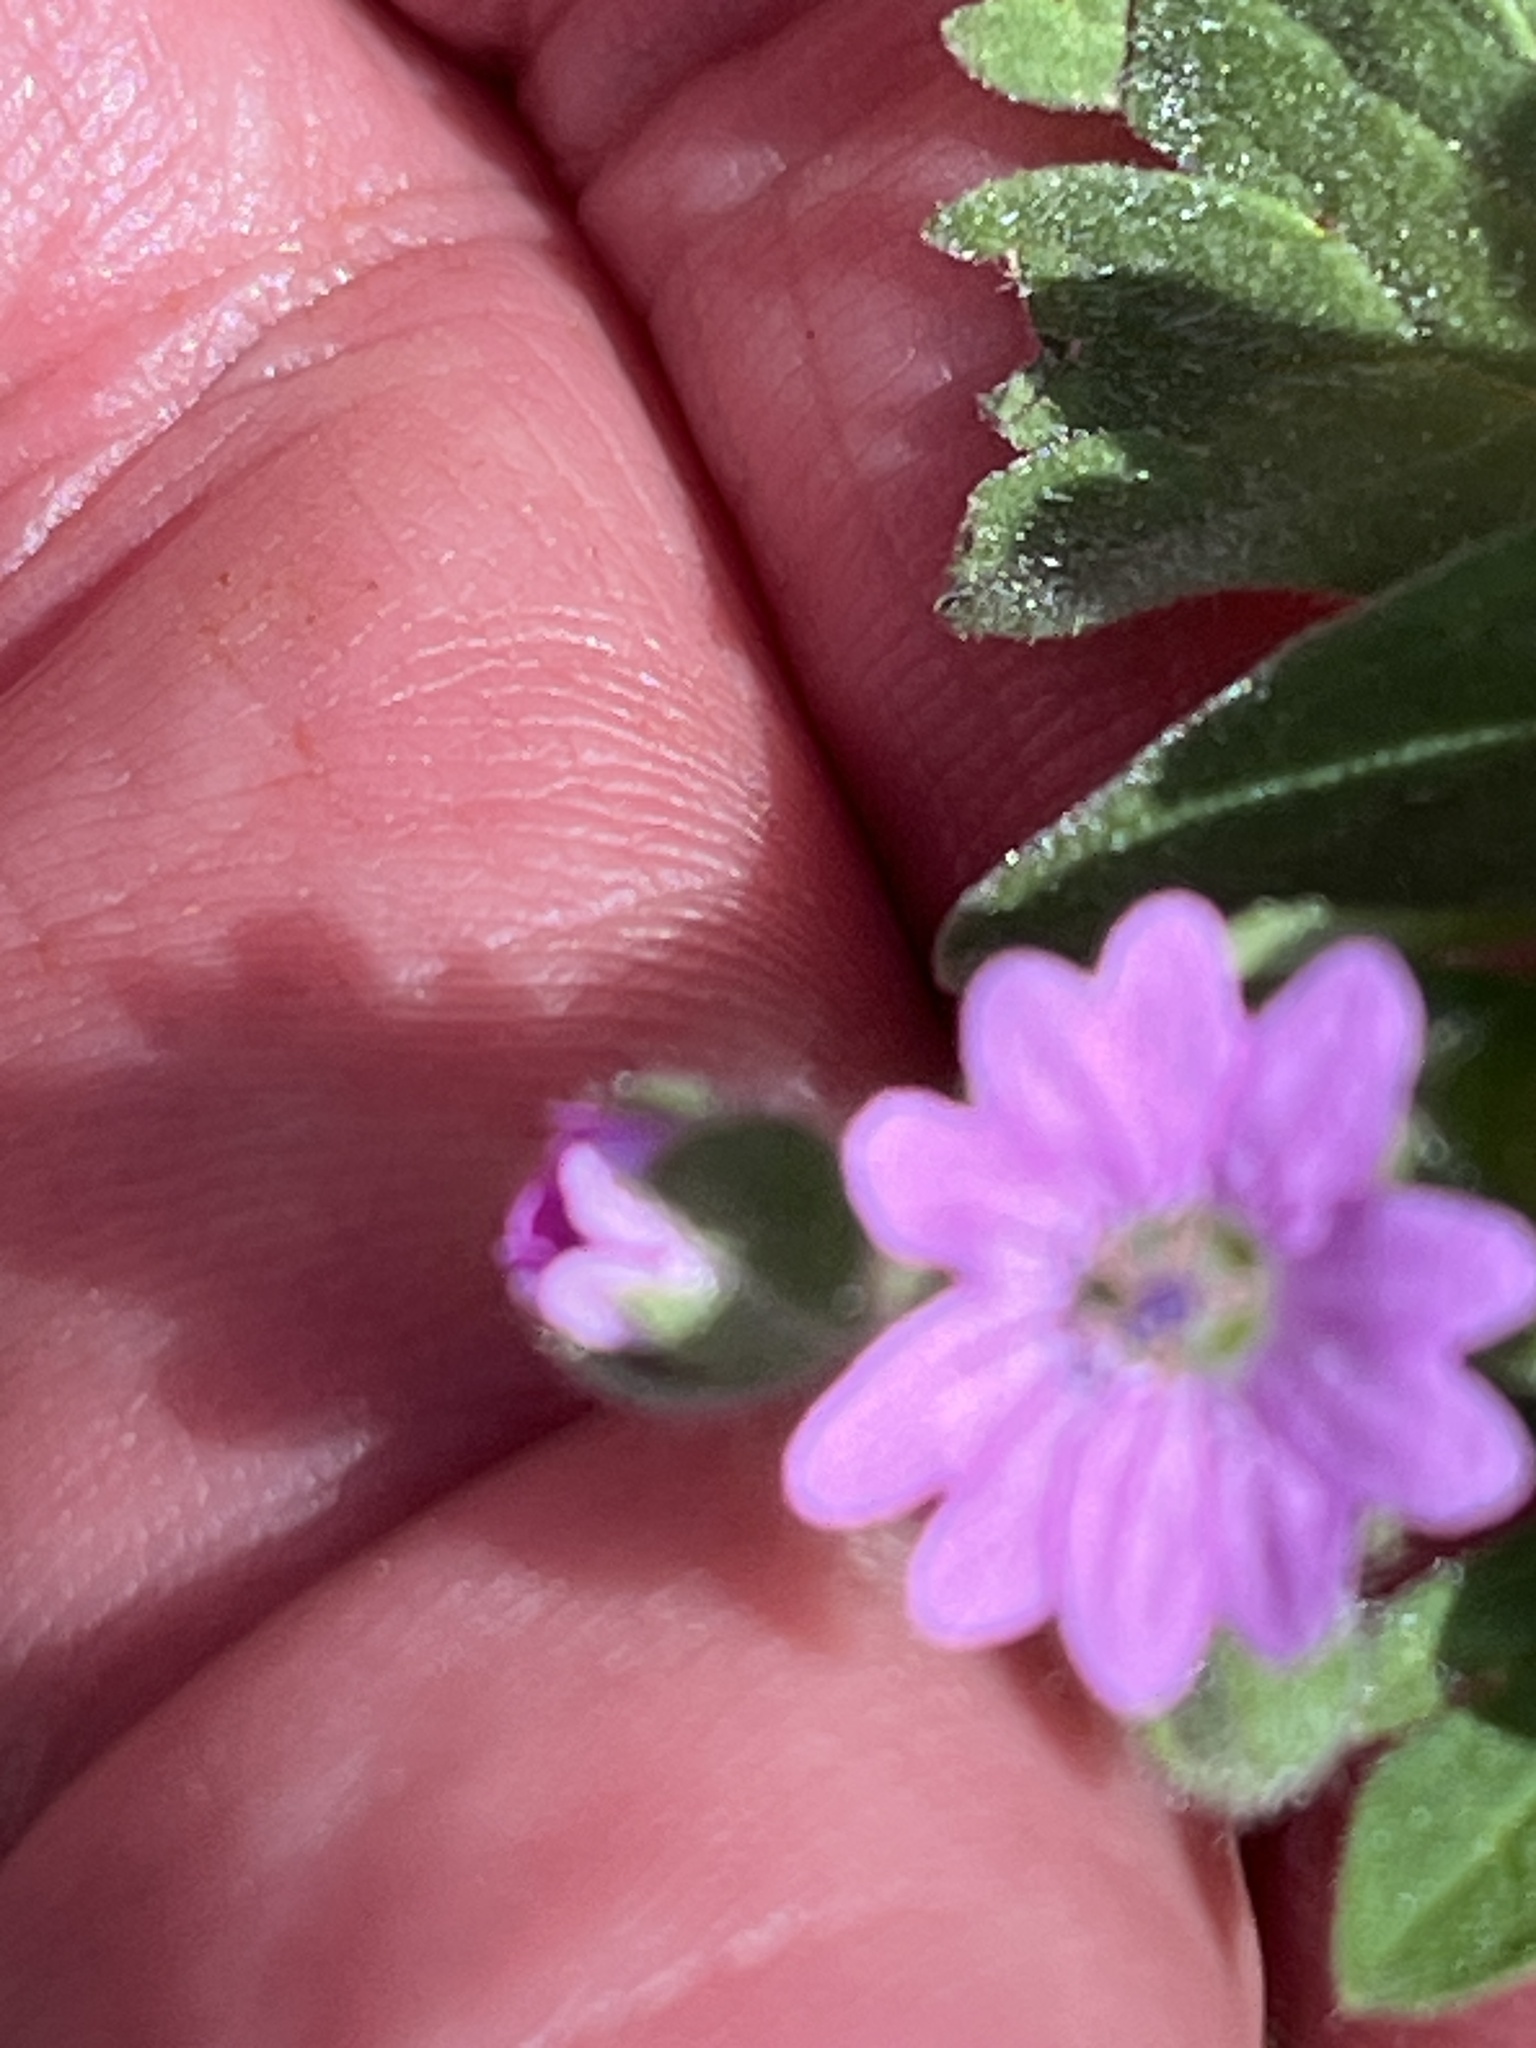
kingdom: Plantae
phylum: Tracheophyta
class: Magnoliopsida
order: Geraniales
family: Geraniaceae
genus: Geranium
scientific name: Geranium molle
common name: Dove's-foot crane's-bill
